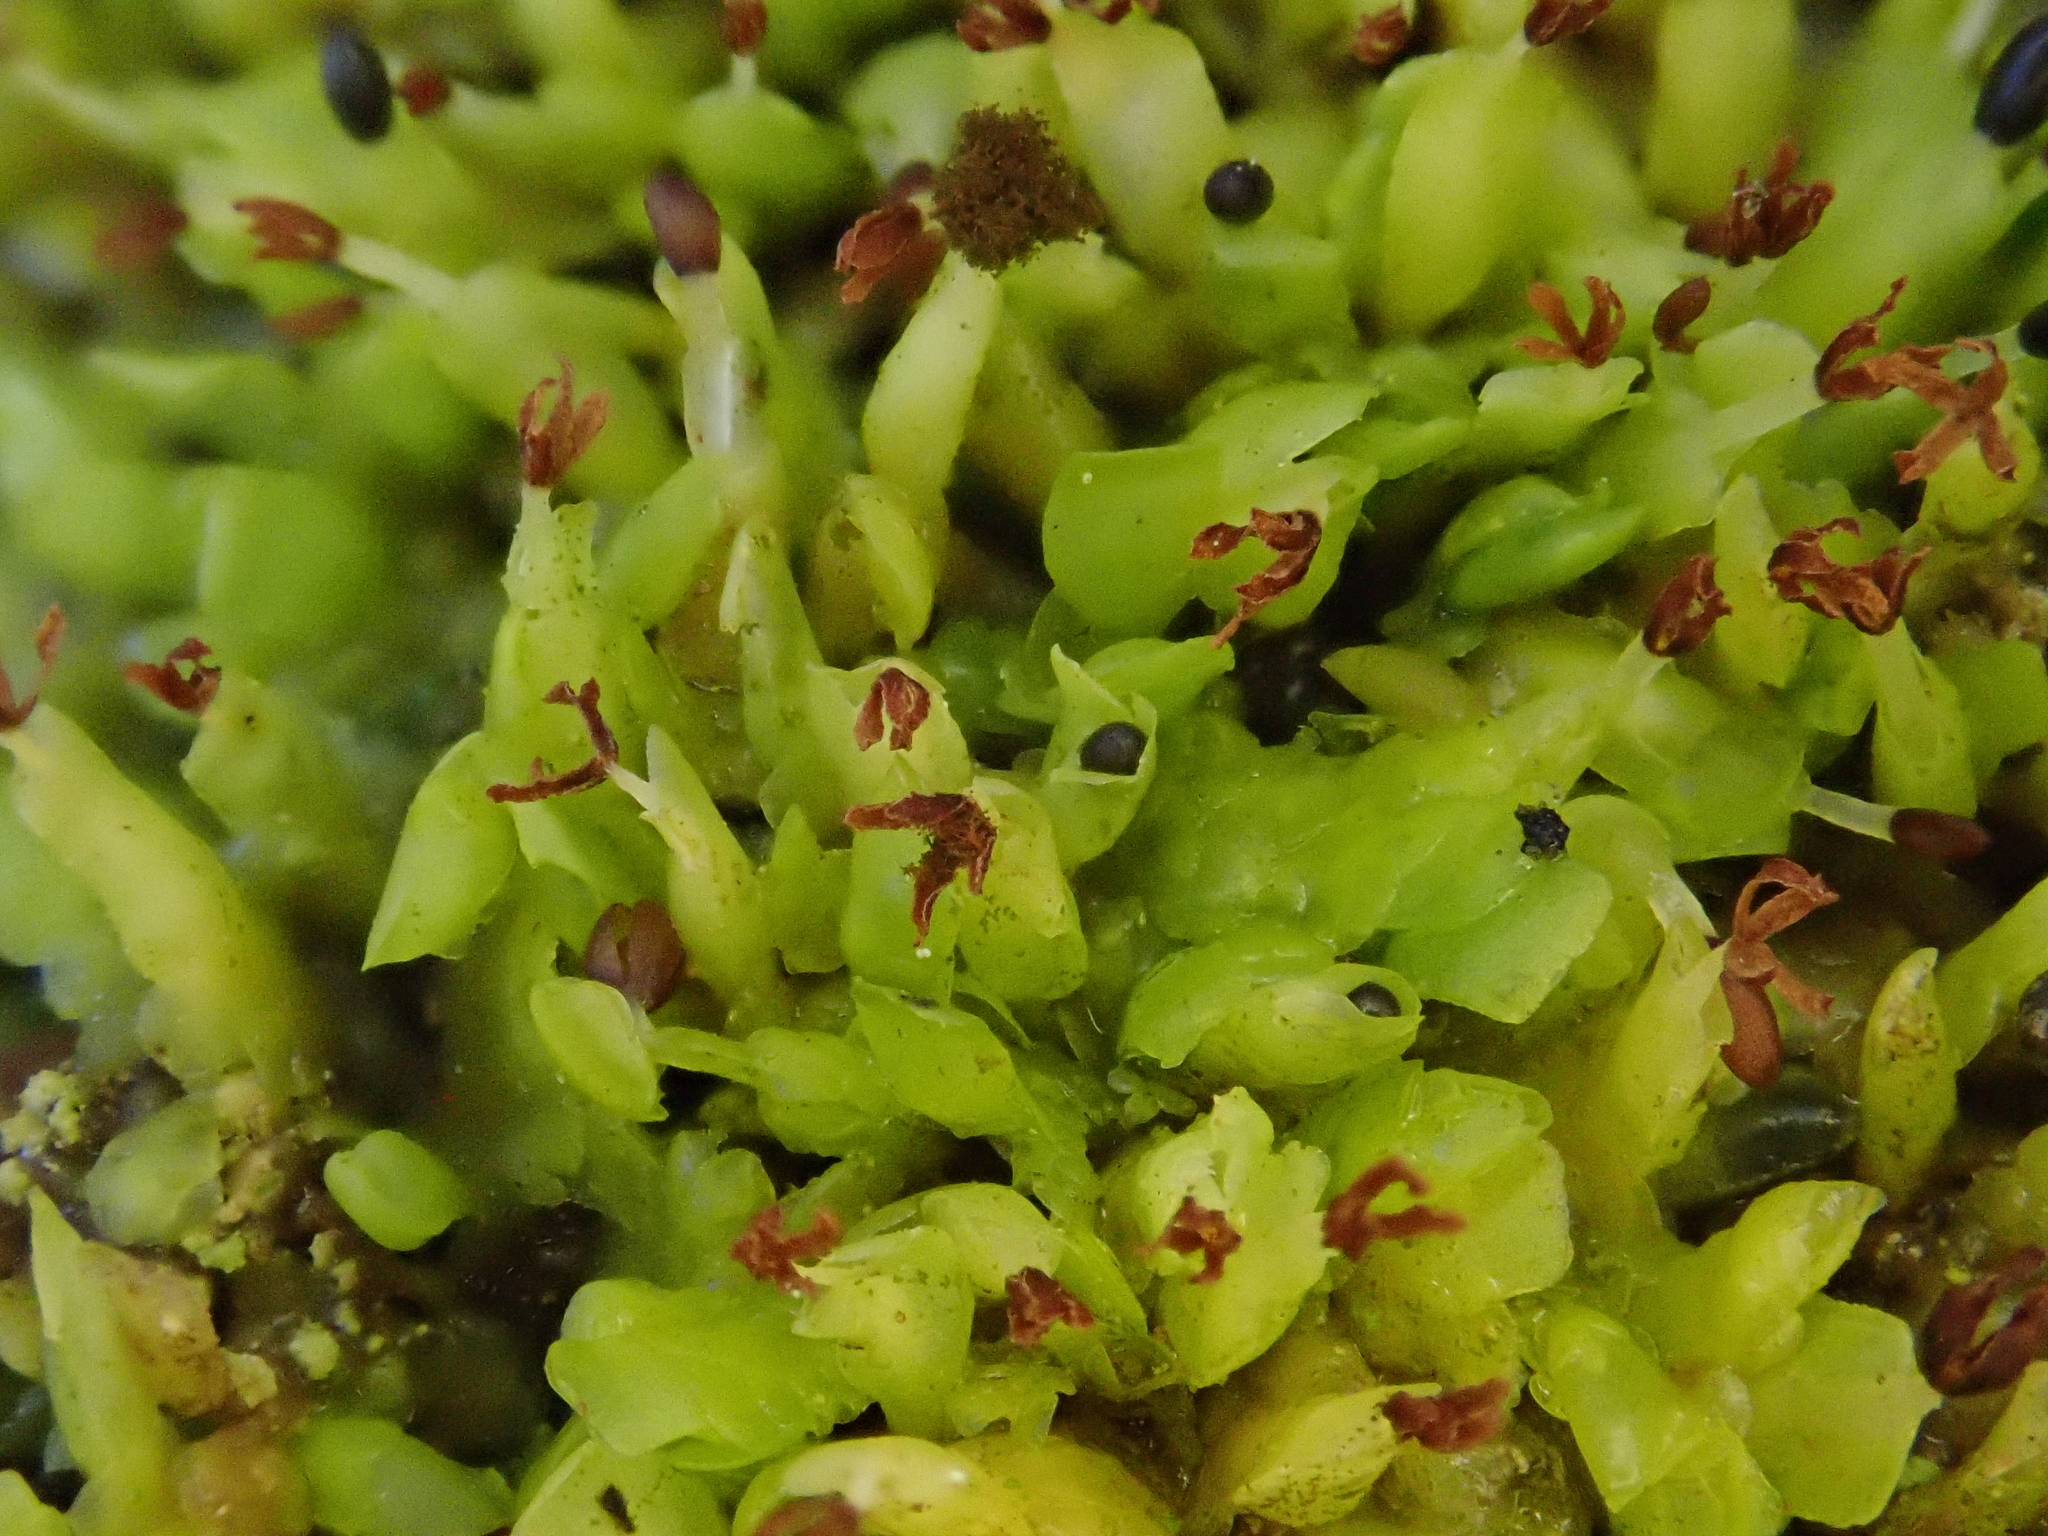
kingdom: Plantae
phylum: Marchantiophyta
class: Jungermanniopsida
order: Porellales
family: Radulaceae
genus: Radula
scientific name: Radula complanata
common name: Flat-leaved scalewort
